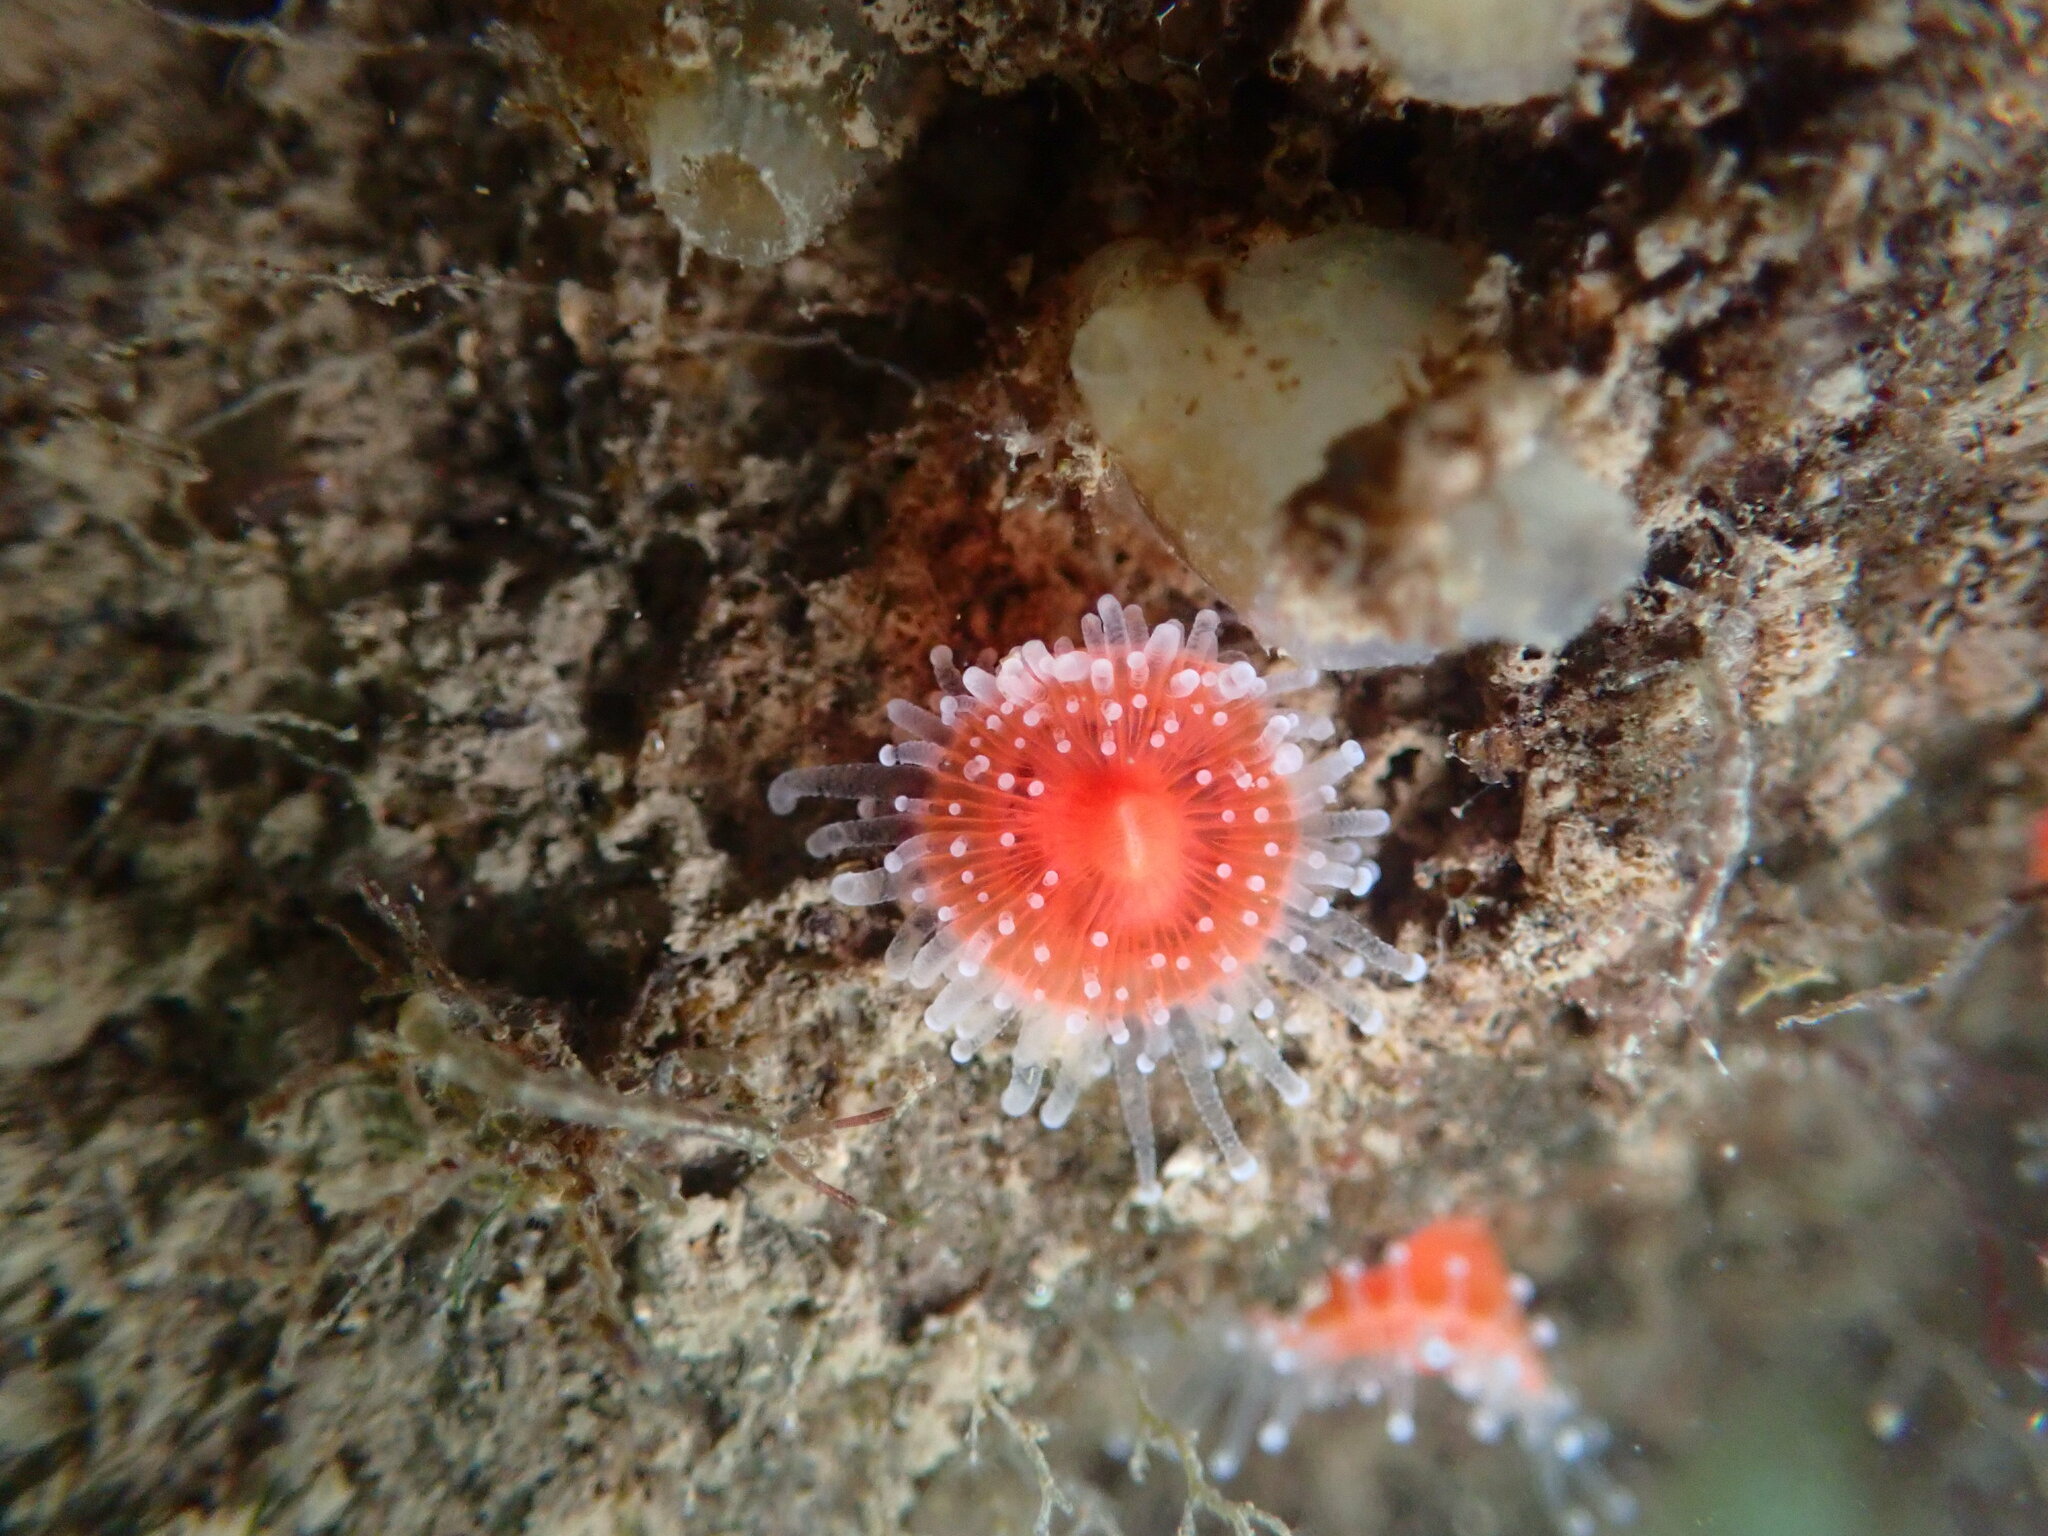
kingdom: Animalia
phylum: Cnidaria
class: Anthozoa
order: Corallimorpharia
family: Corallimorphidae
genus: Corynactis
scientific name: Corynactis californica
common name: Strawberry corallimorpharian
